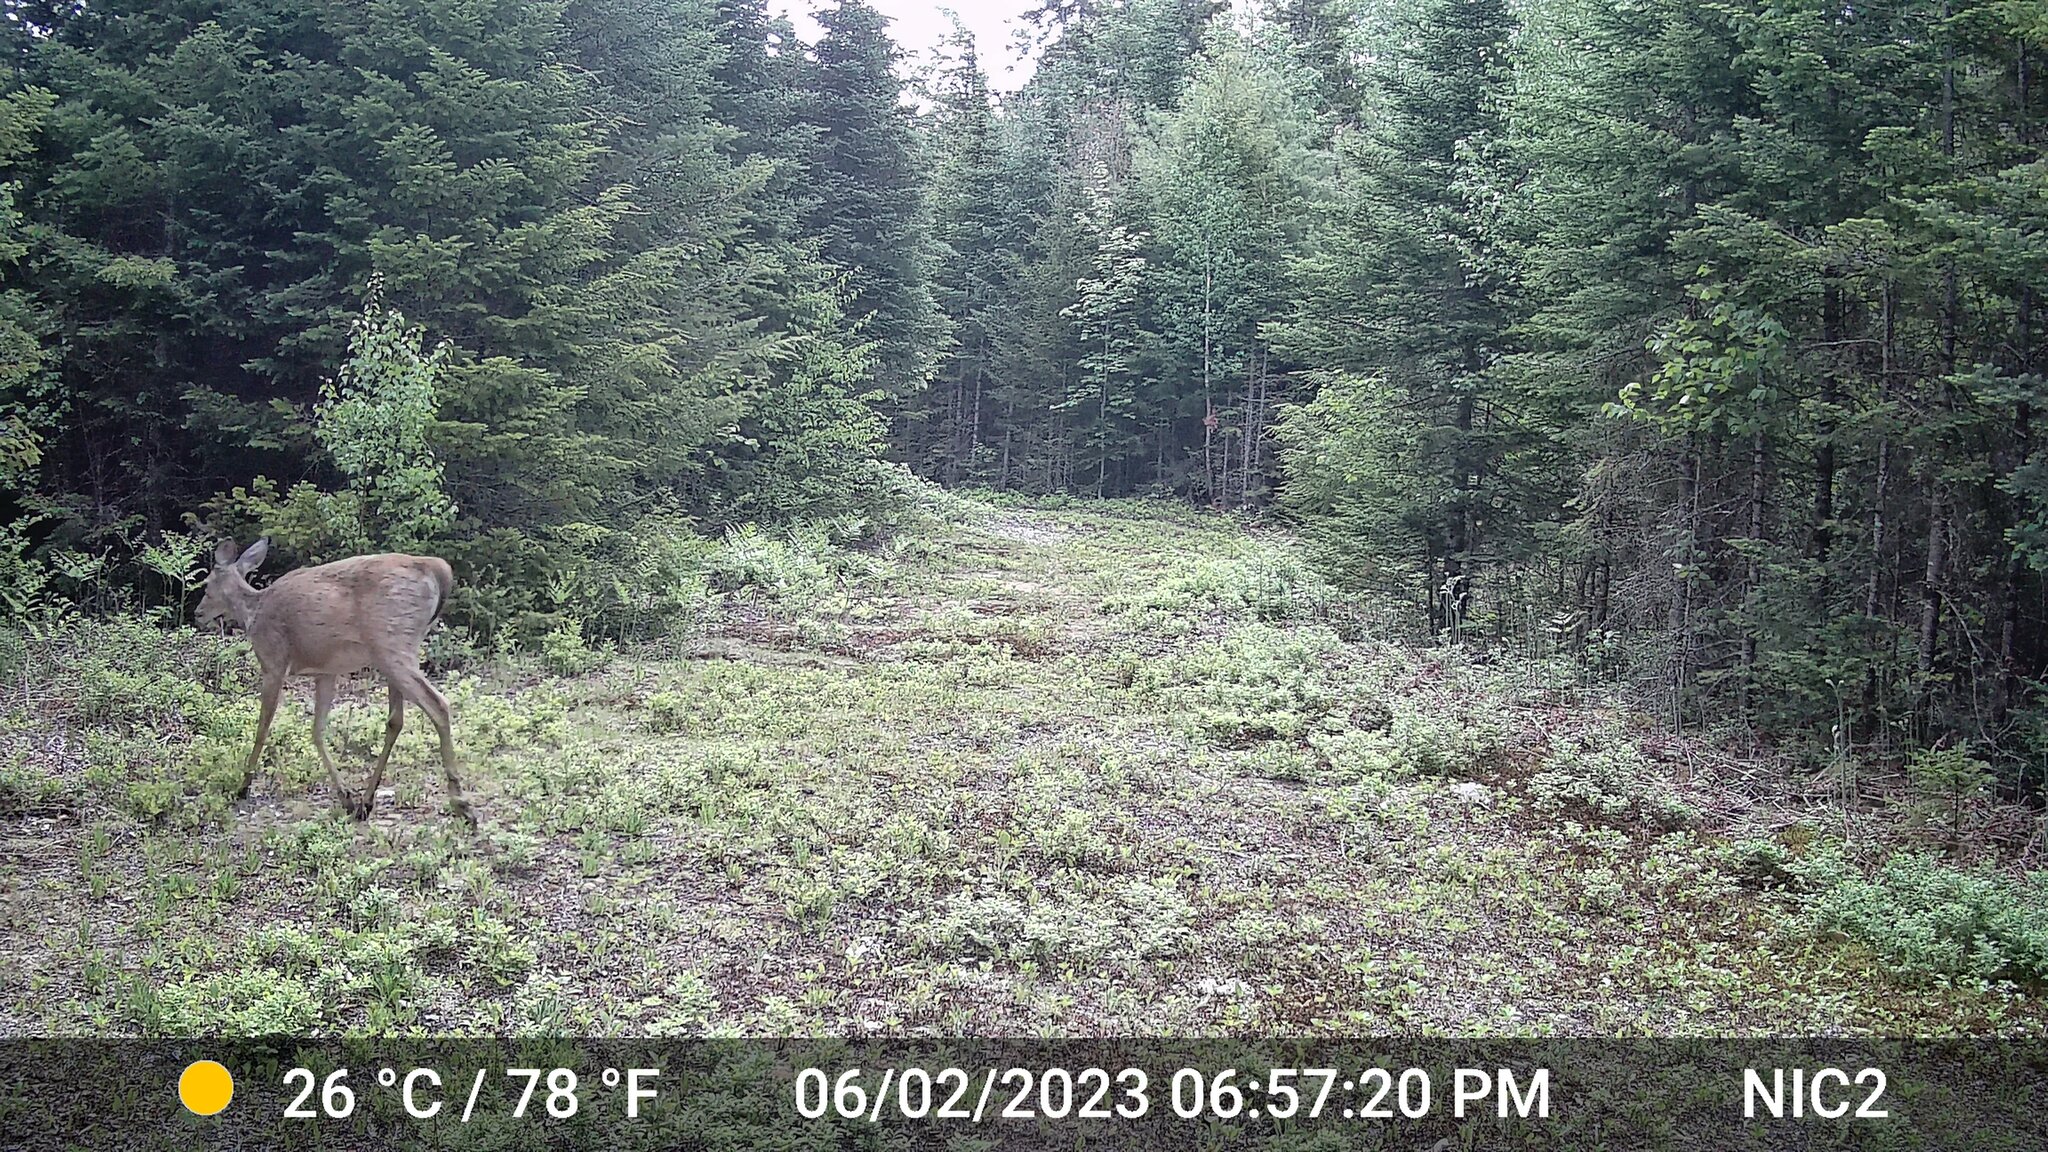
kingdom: Animalia
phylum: Chordata
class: Mammalia
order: Artiodactyla
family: Cervidae
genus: Odocoileus
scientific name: Odocoileus virginianus
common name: White-tailed deer
